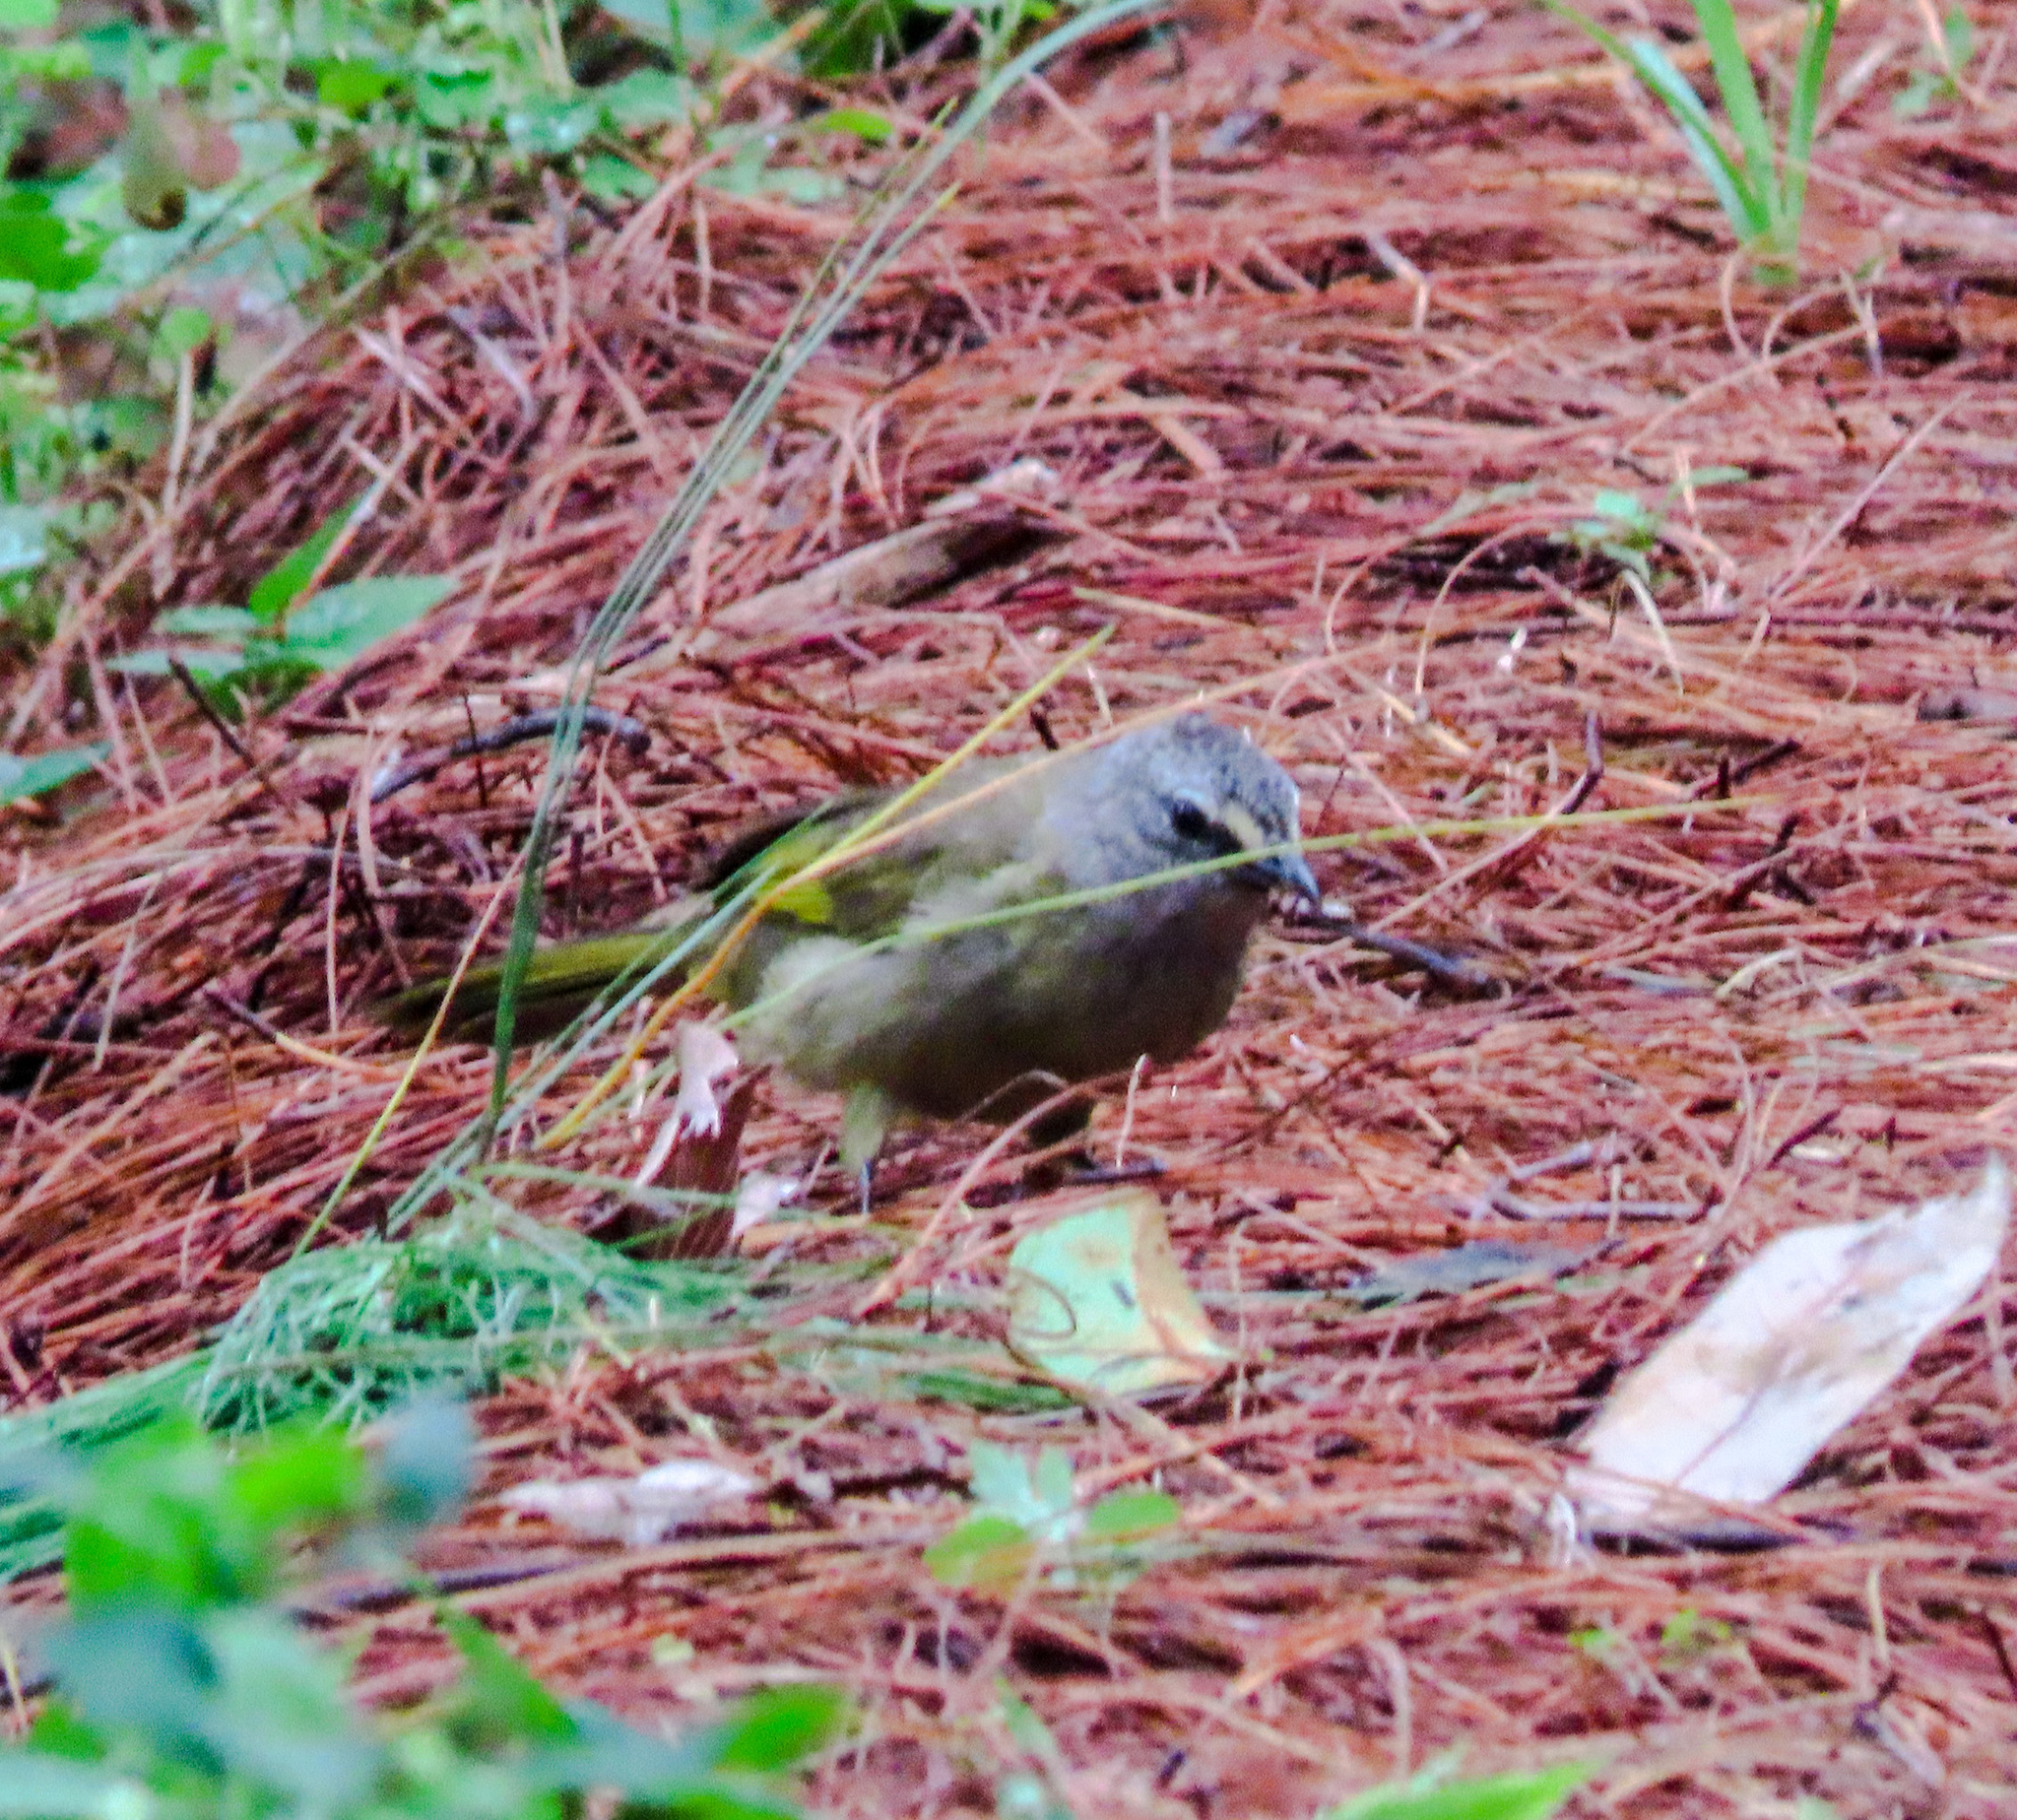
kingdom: Animalia
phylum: Chordata
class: Aves
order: Passeriformes
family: Pycnonotidae
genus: Pycnonotus
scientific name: Pycnonotus flavescens
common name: Flavescent bulbul
